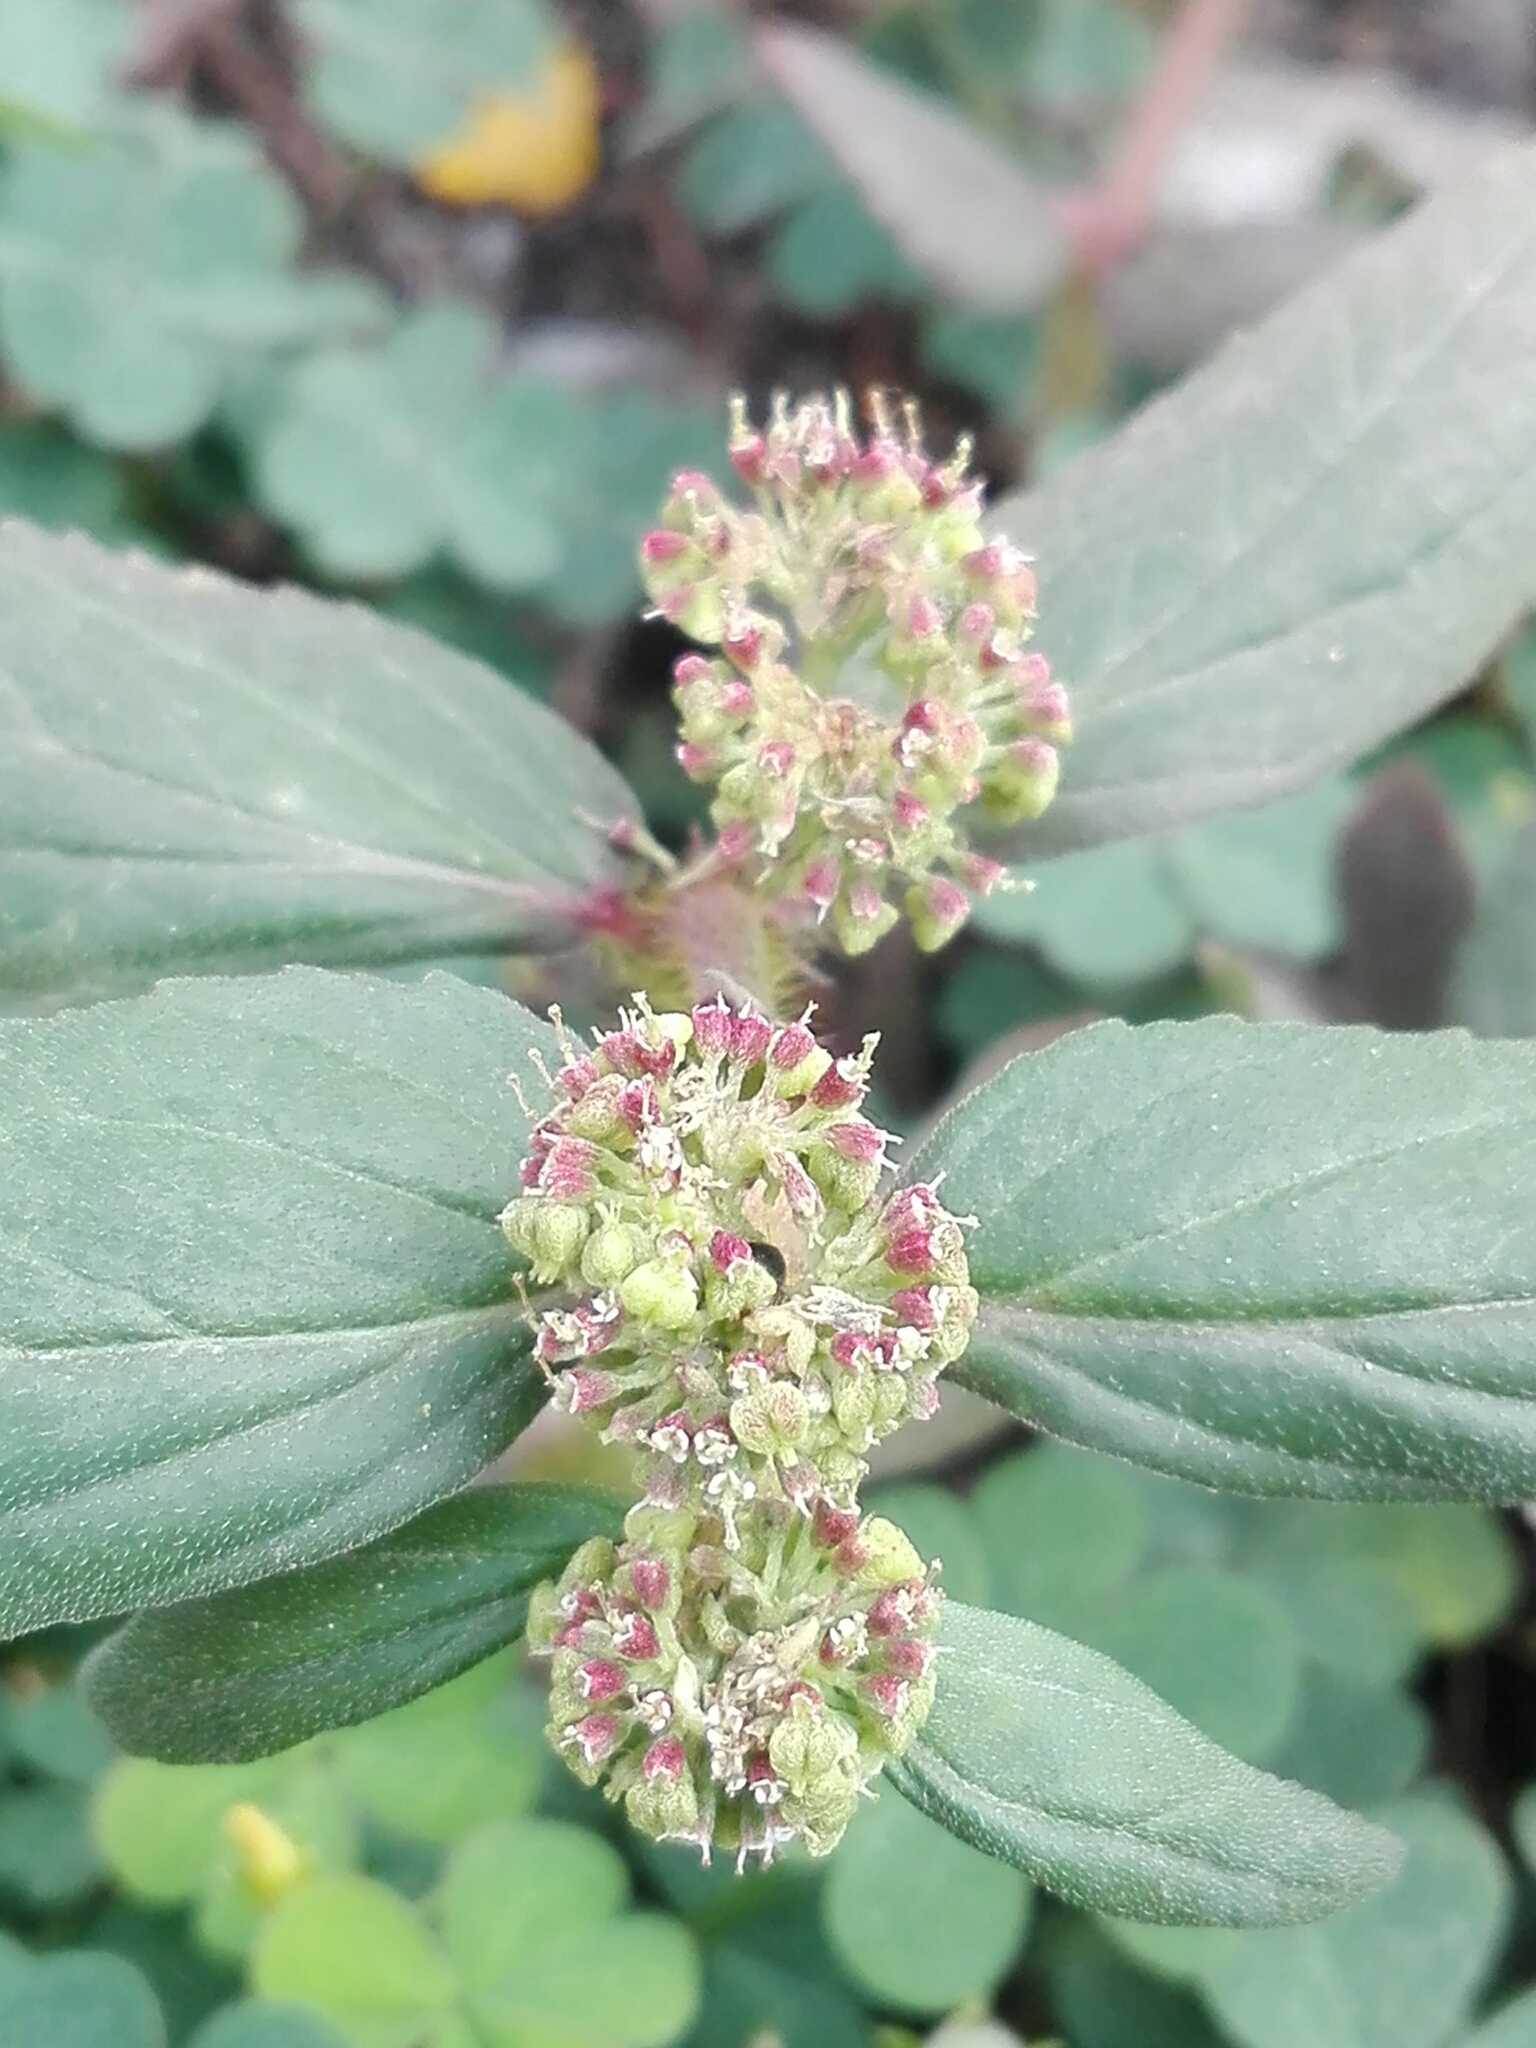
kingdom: Plantae
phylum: Tracheophyta
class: Magnoliopsida
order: Malpighiales
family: Euphorbiaceae
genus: Euphorbia
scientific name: Euphorbia hirta
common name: Pillpod sandmat
